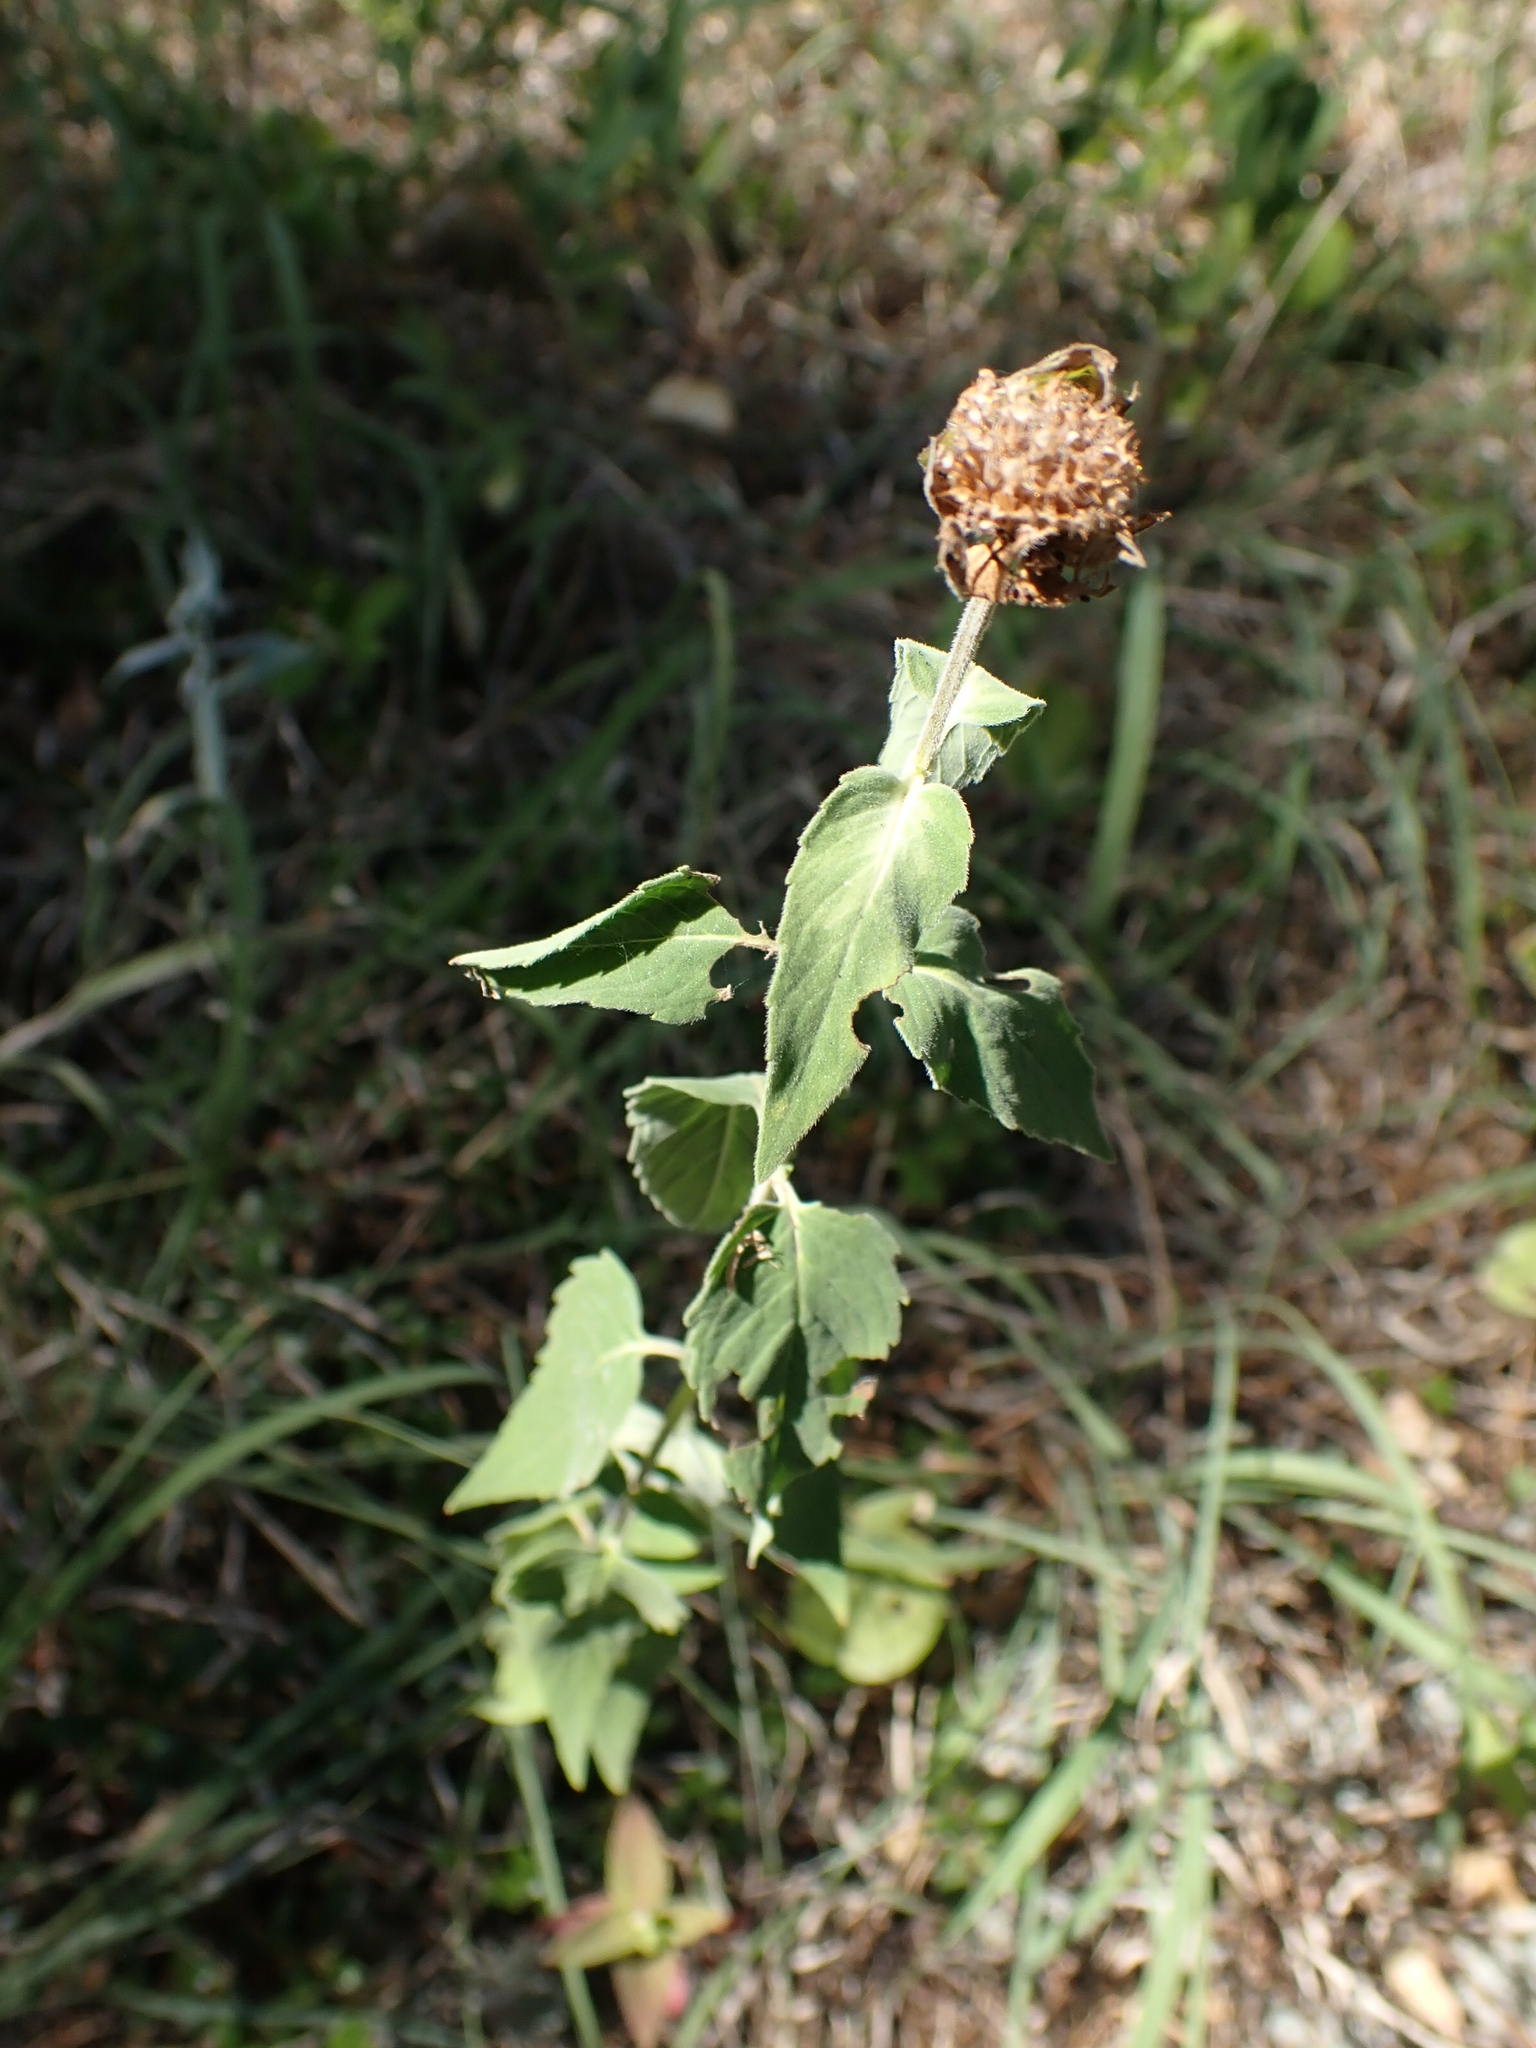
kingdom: Plantae
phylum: Tracheophyta
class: Magnoliopsida
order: Lamiales
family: Lamiaceae
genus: Monarda
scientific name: Monarda fistulosa
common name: Purple beebalm
